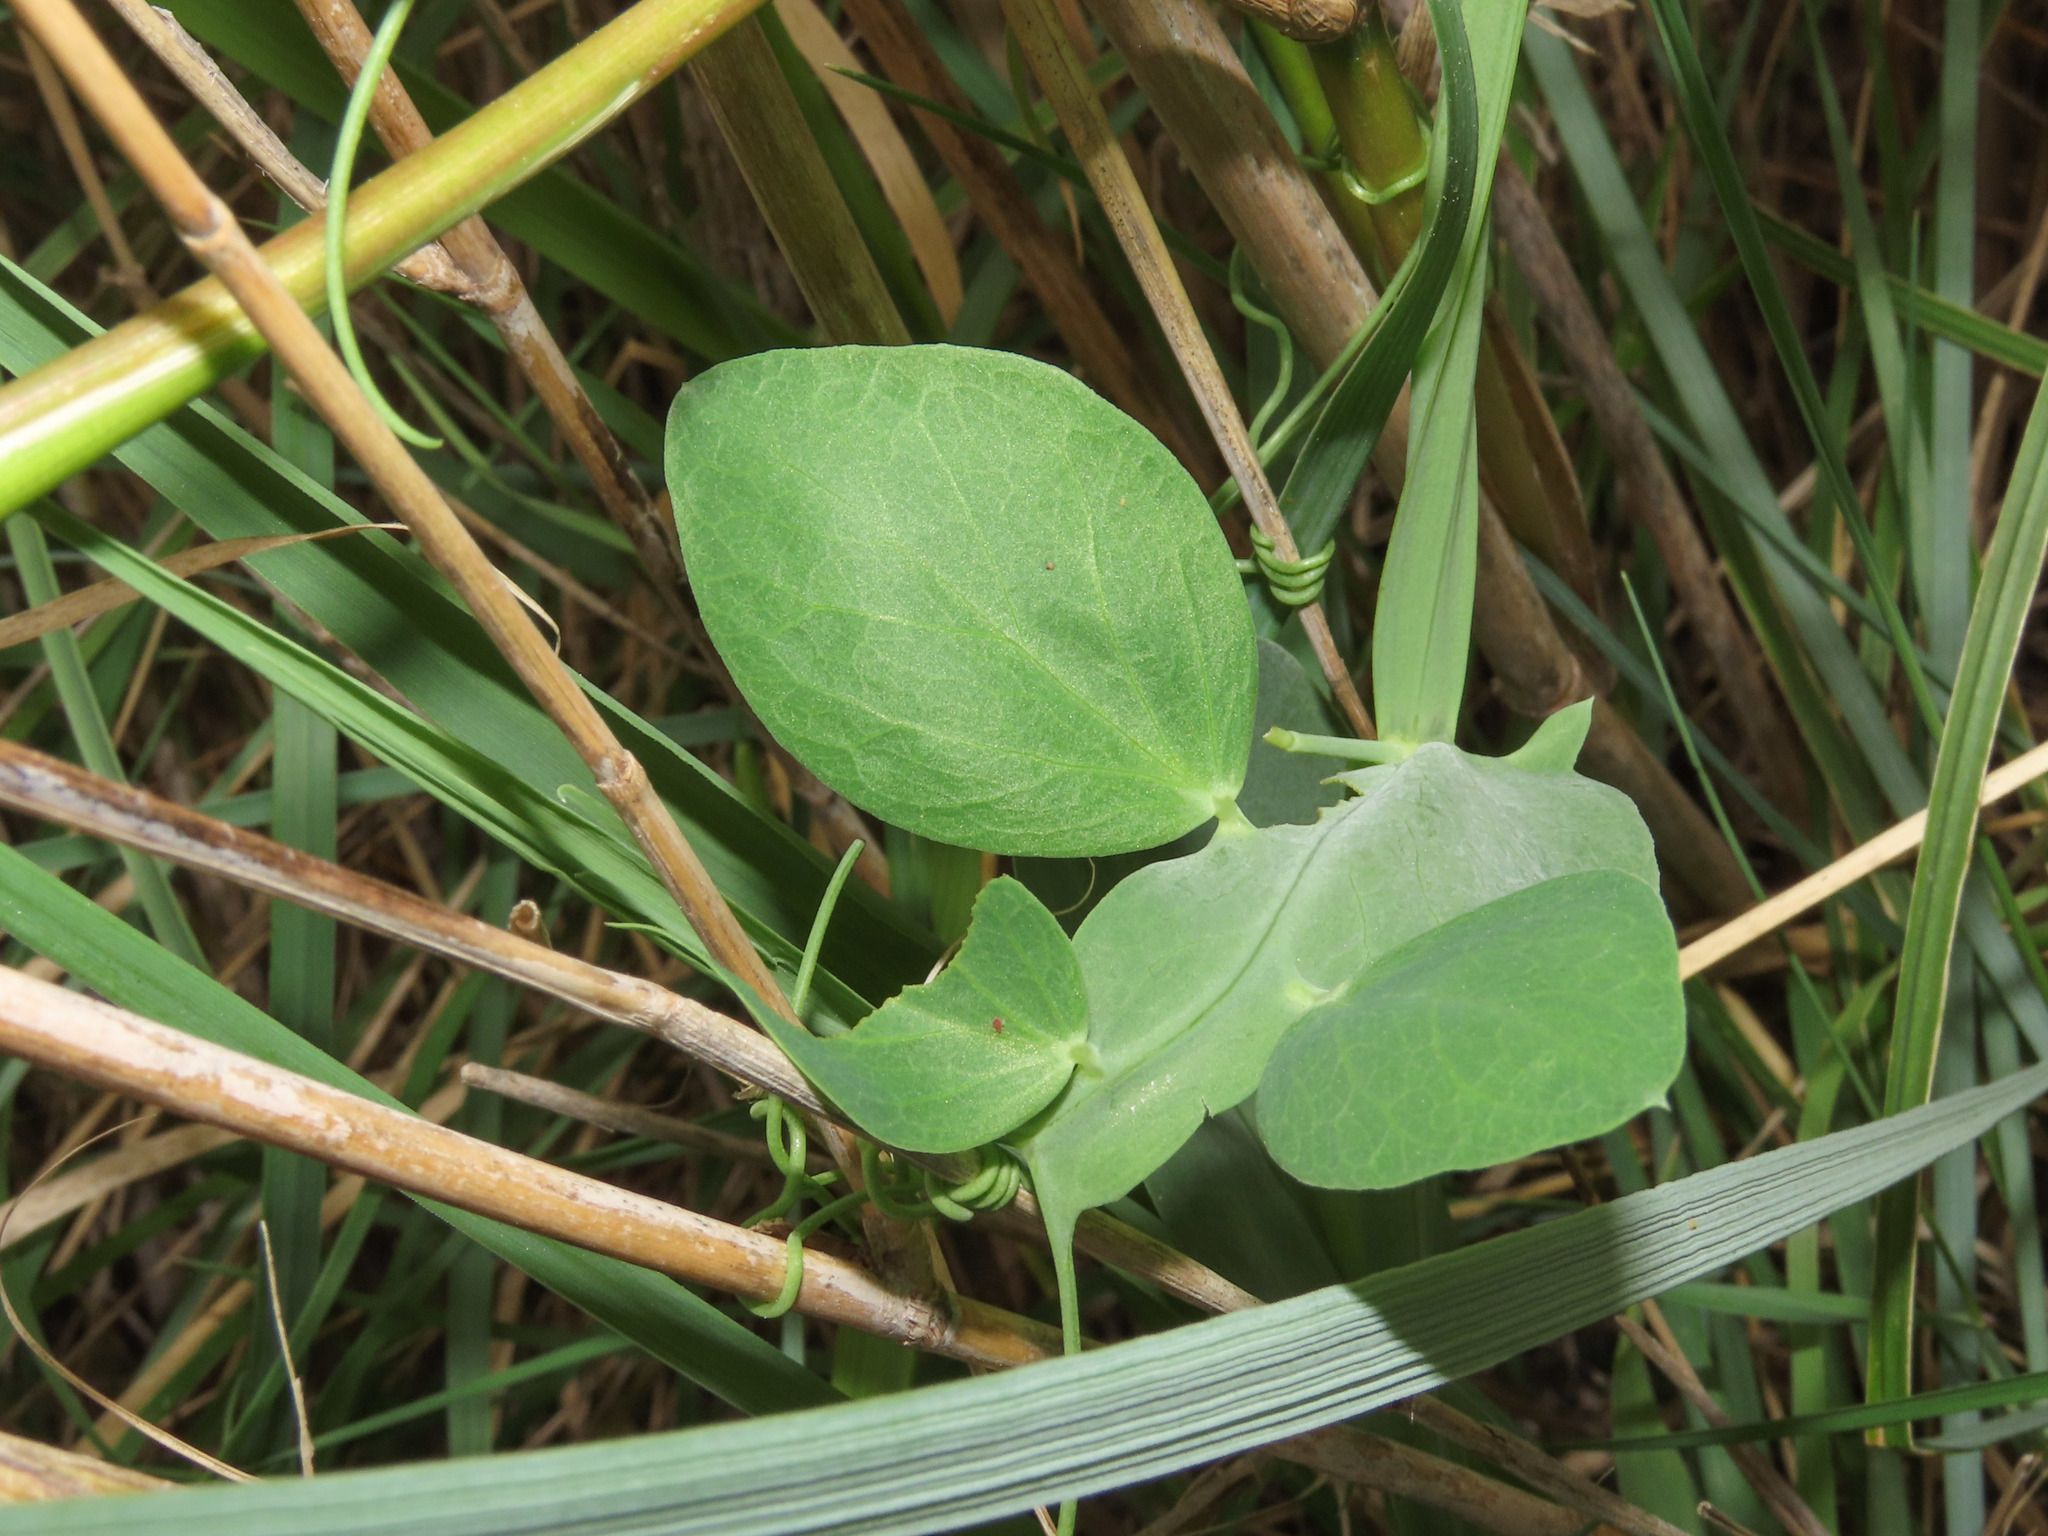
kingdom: Plantae
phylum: Tracheophyta
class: Magnoliopsida
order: Fabales
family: Fabaceae
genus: Lathyrus
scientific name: Lathyrus ochrus
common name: Winged vetchling
